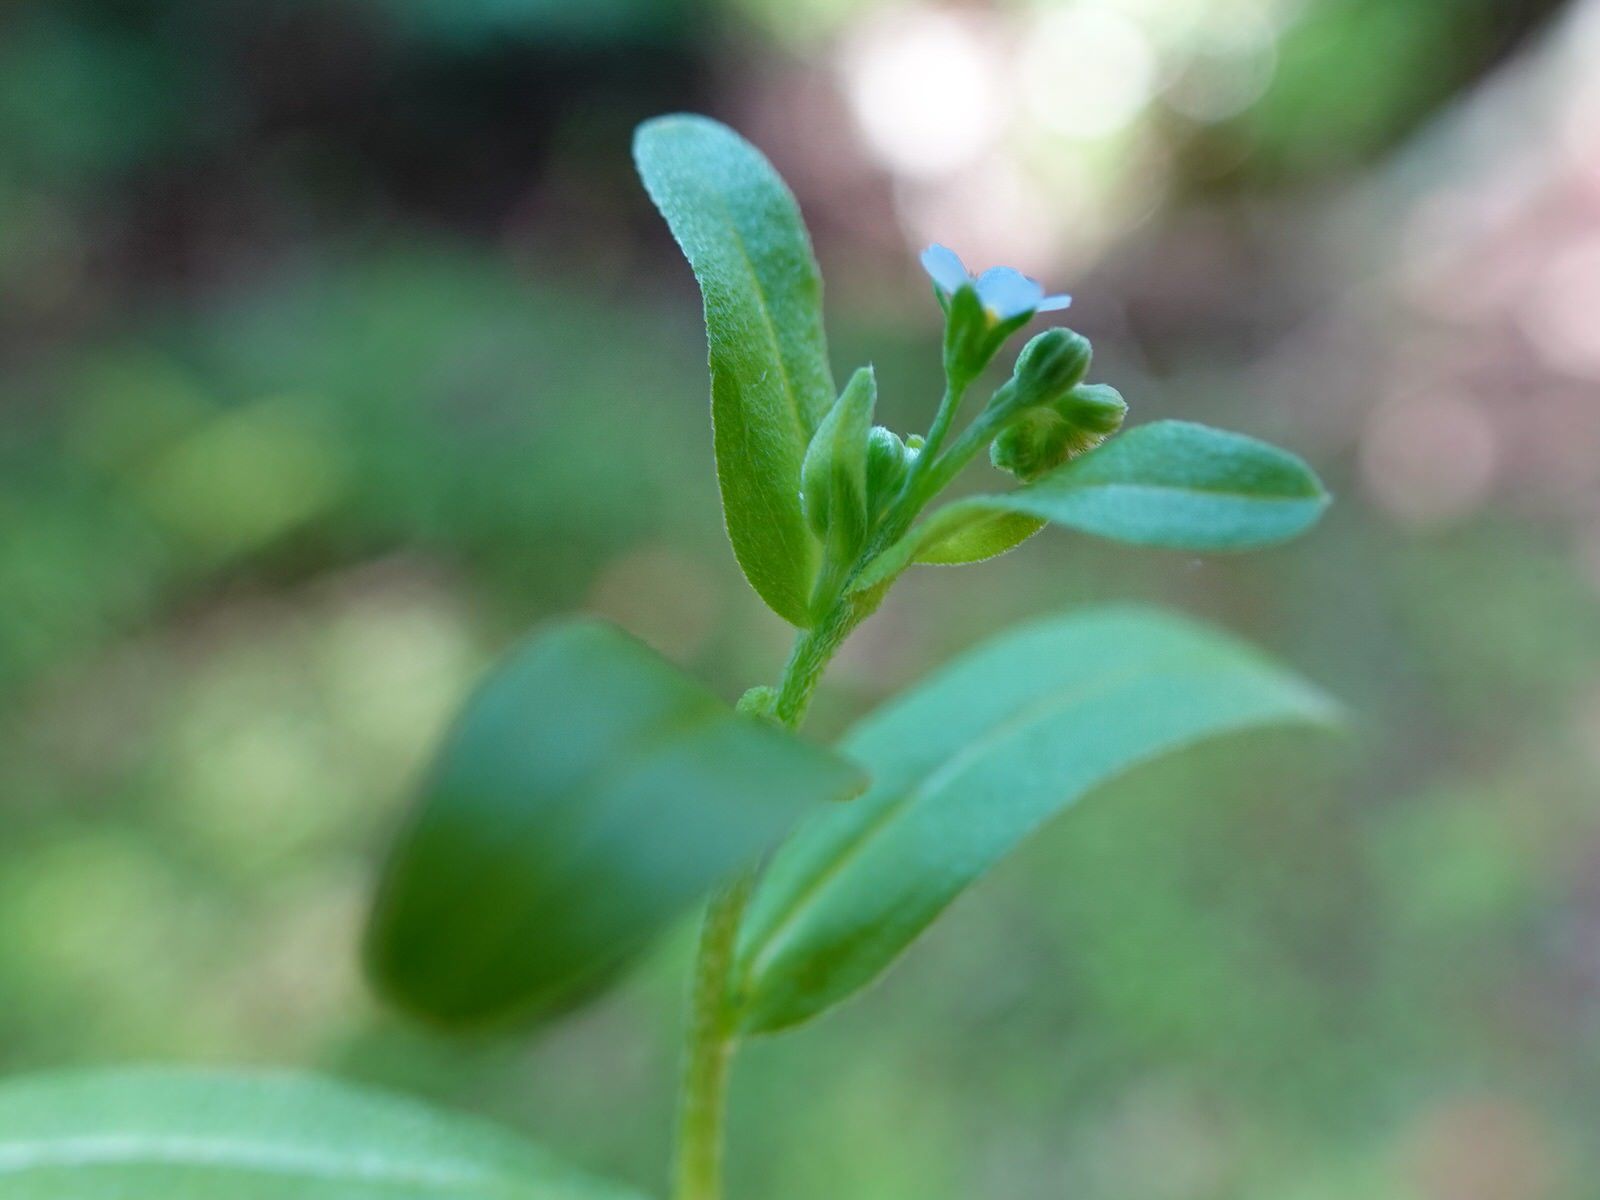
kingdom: Plantae
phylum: Tracheophyta
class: Magnoliopsida
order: Boraginales
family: Boraginaceae
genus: Myosotis
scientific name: Myosotis laxa
